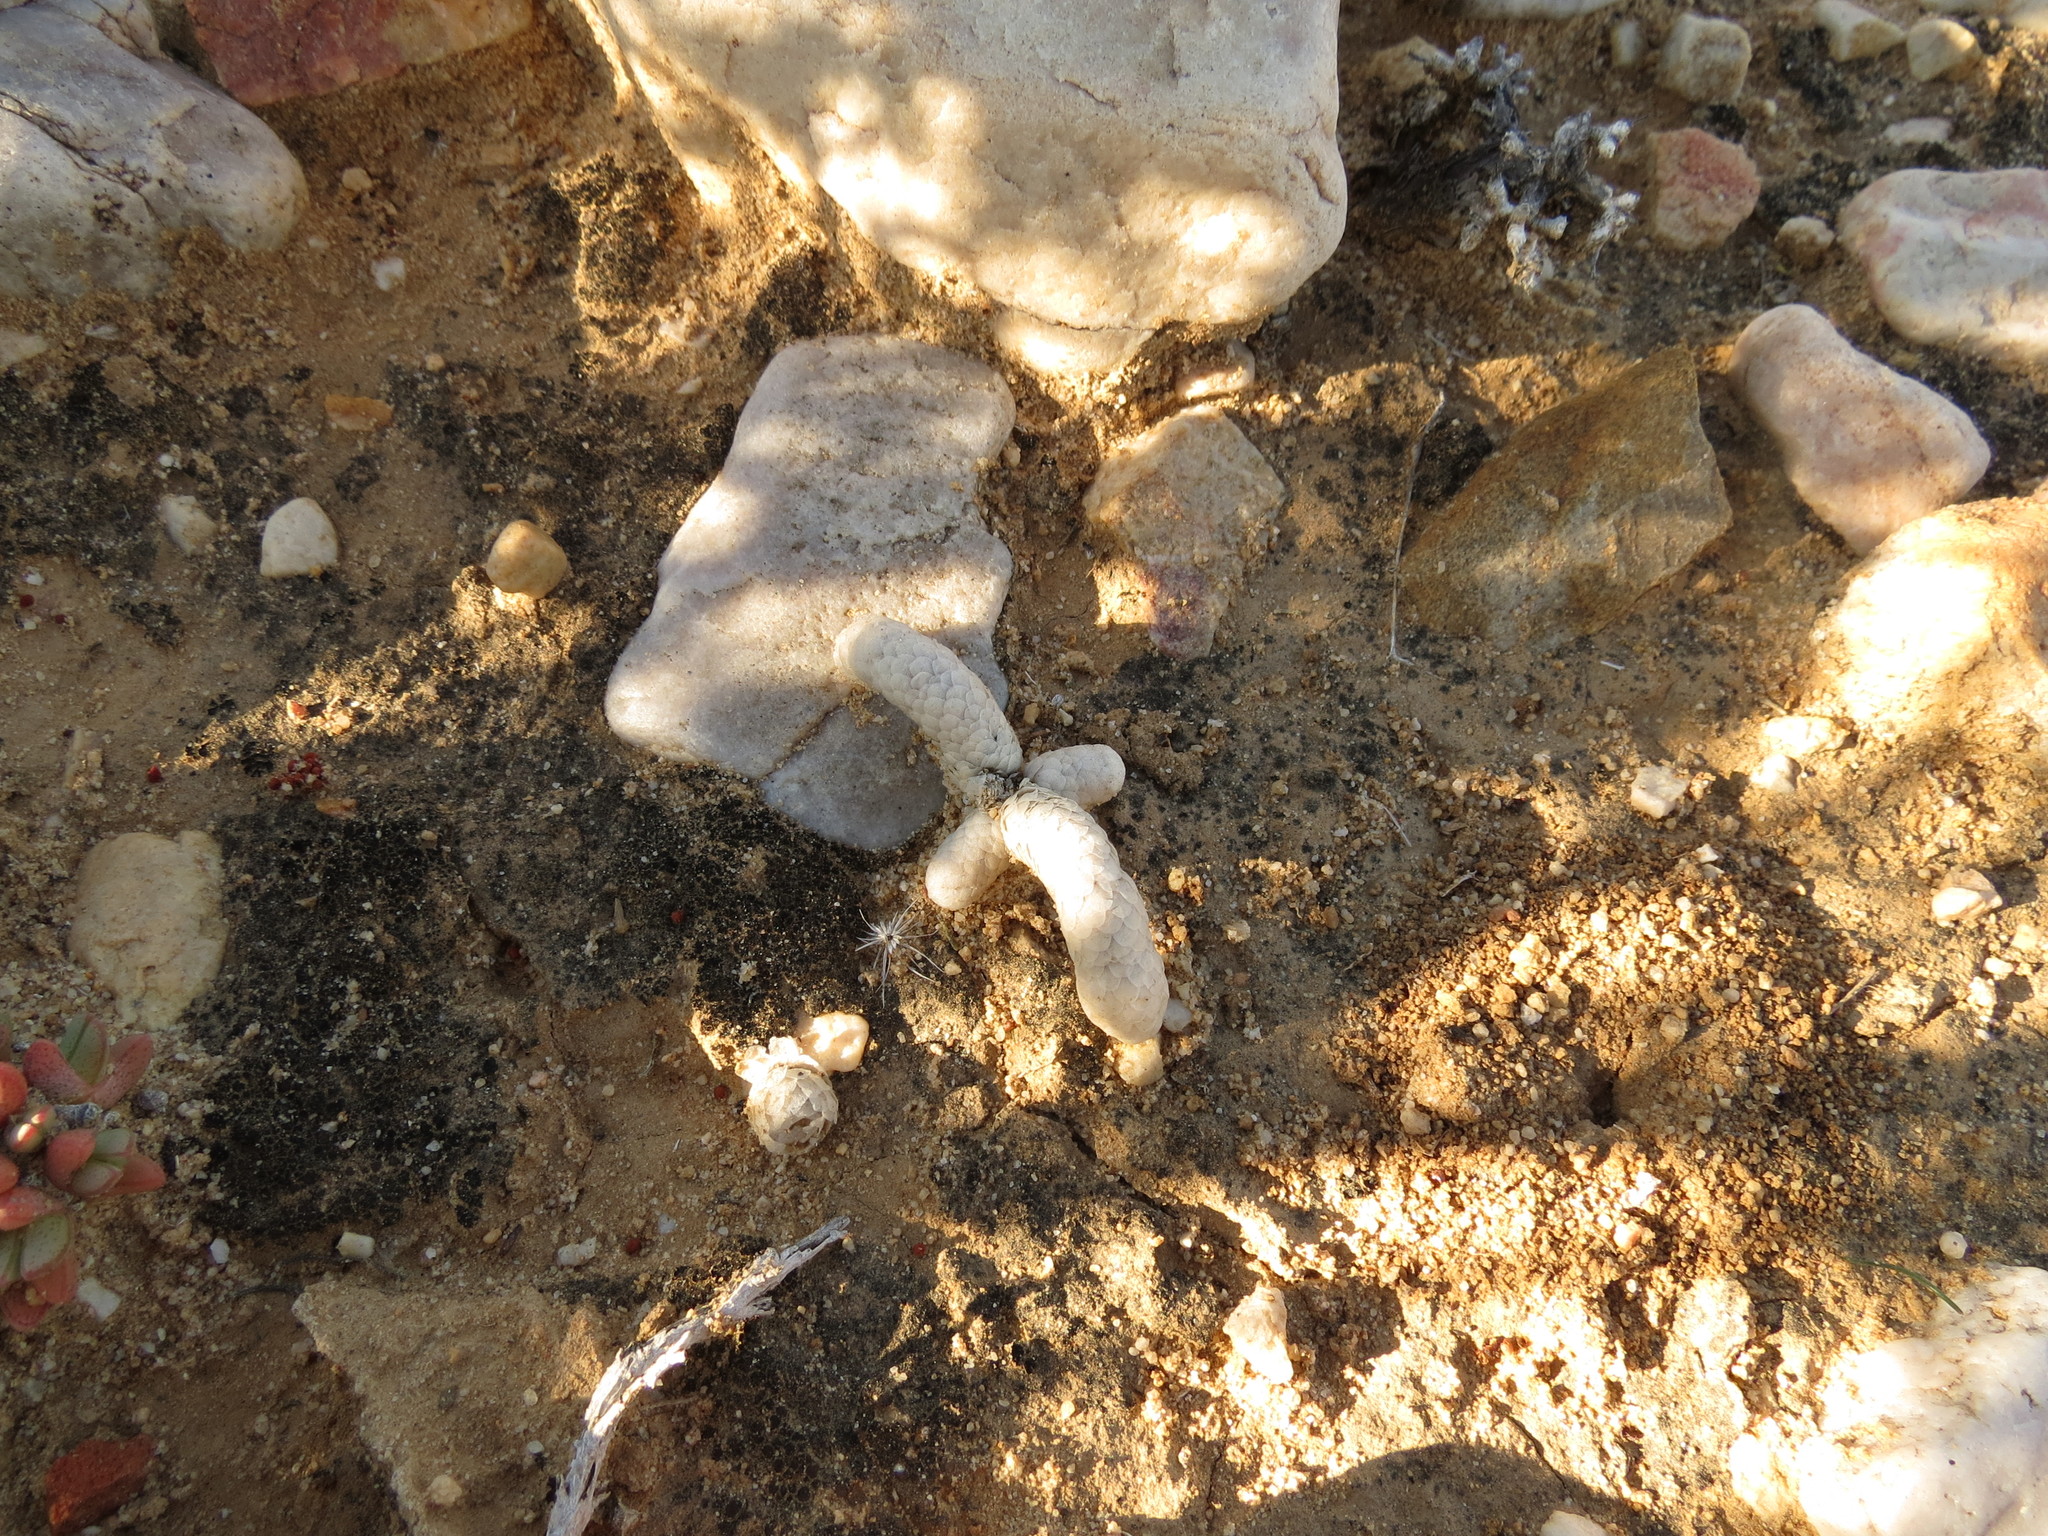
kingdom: Plantae
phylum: Tracheophyta
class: Magnoliopsida
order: Caryophyllales
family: Anacampserotaceae
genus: Avonia
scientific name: Avonia papyracea
